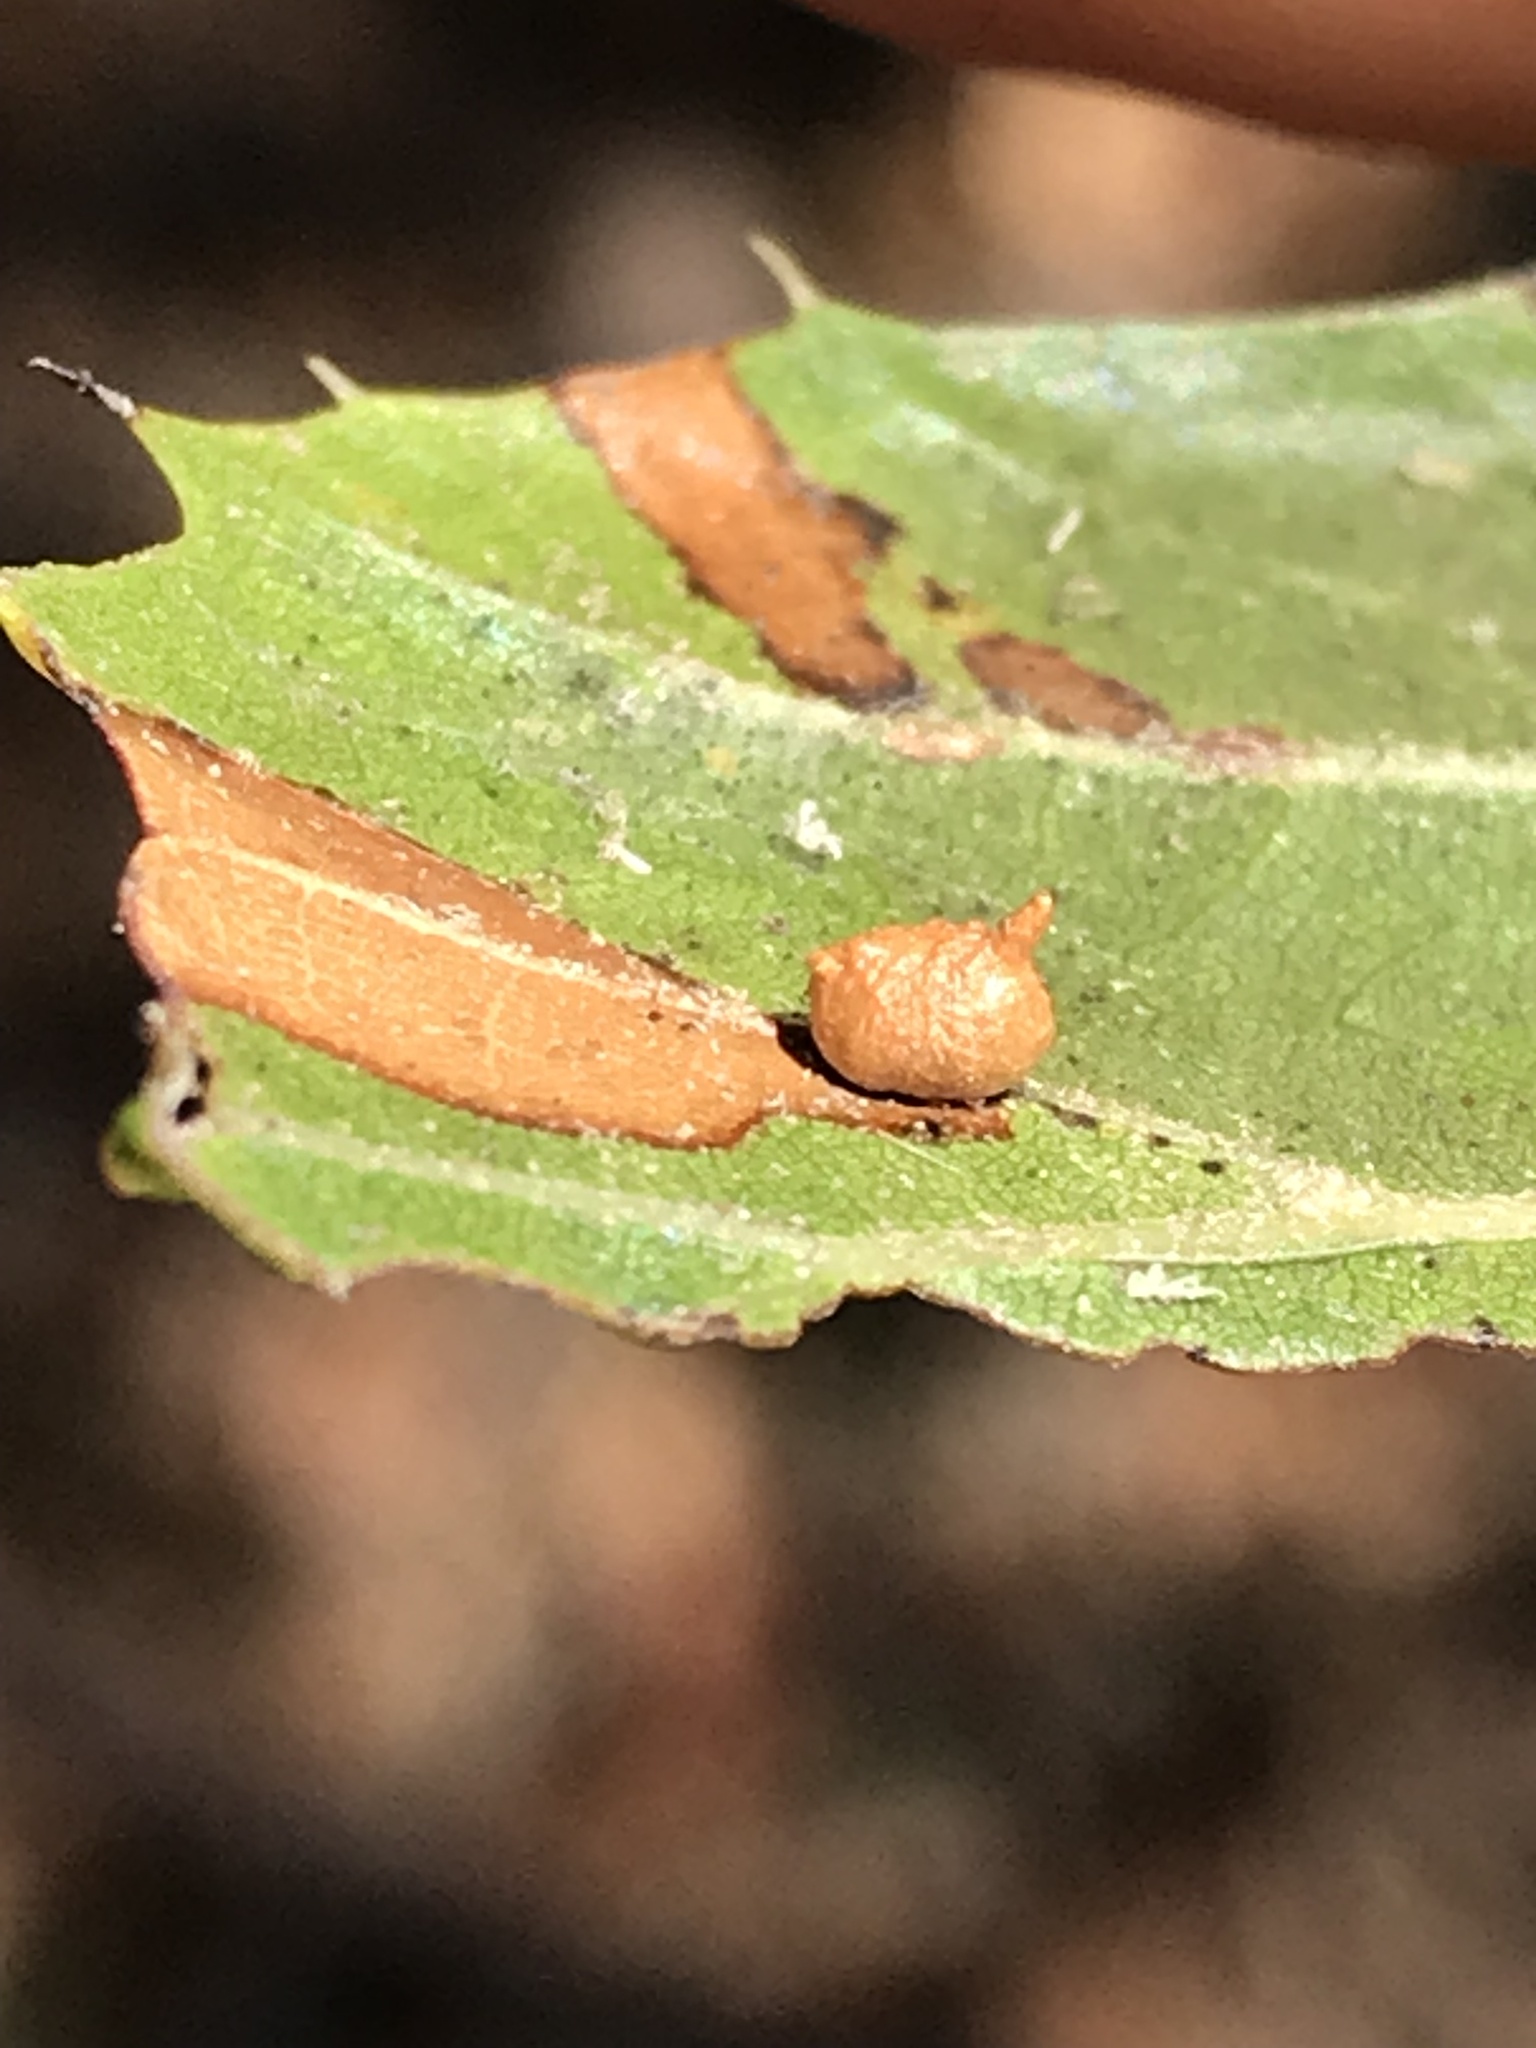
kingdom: Animalia
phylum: Arthropoda
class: Insecta
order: Hymenoptera
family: Cynipidae
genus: Dryocosmus
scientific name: Dryocosmus
